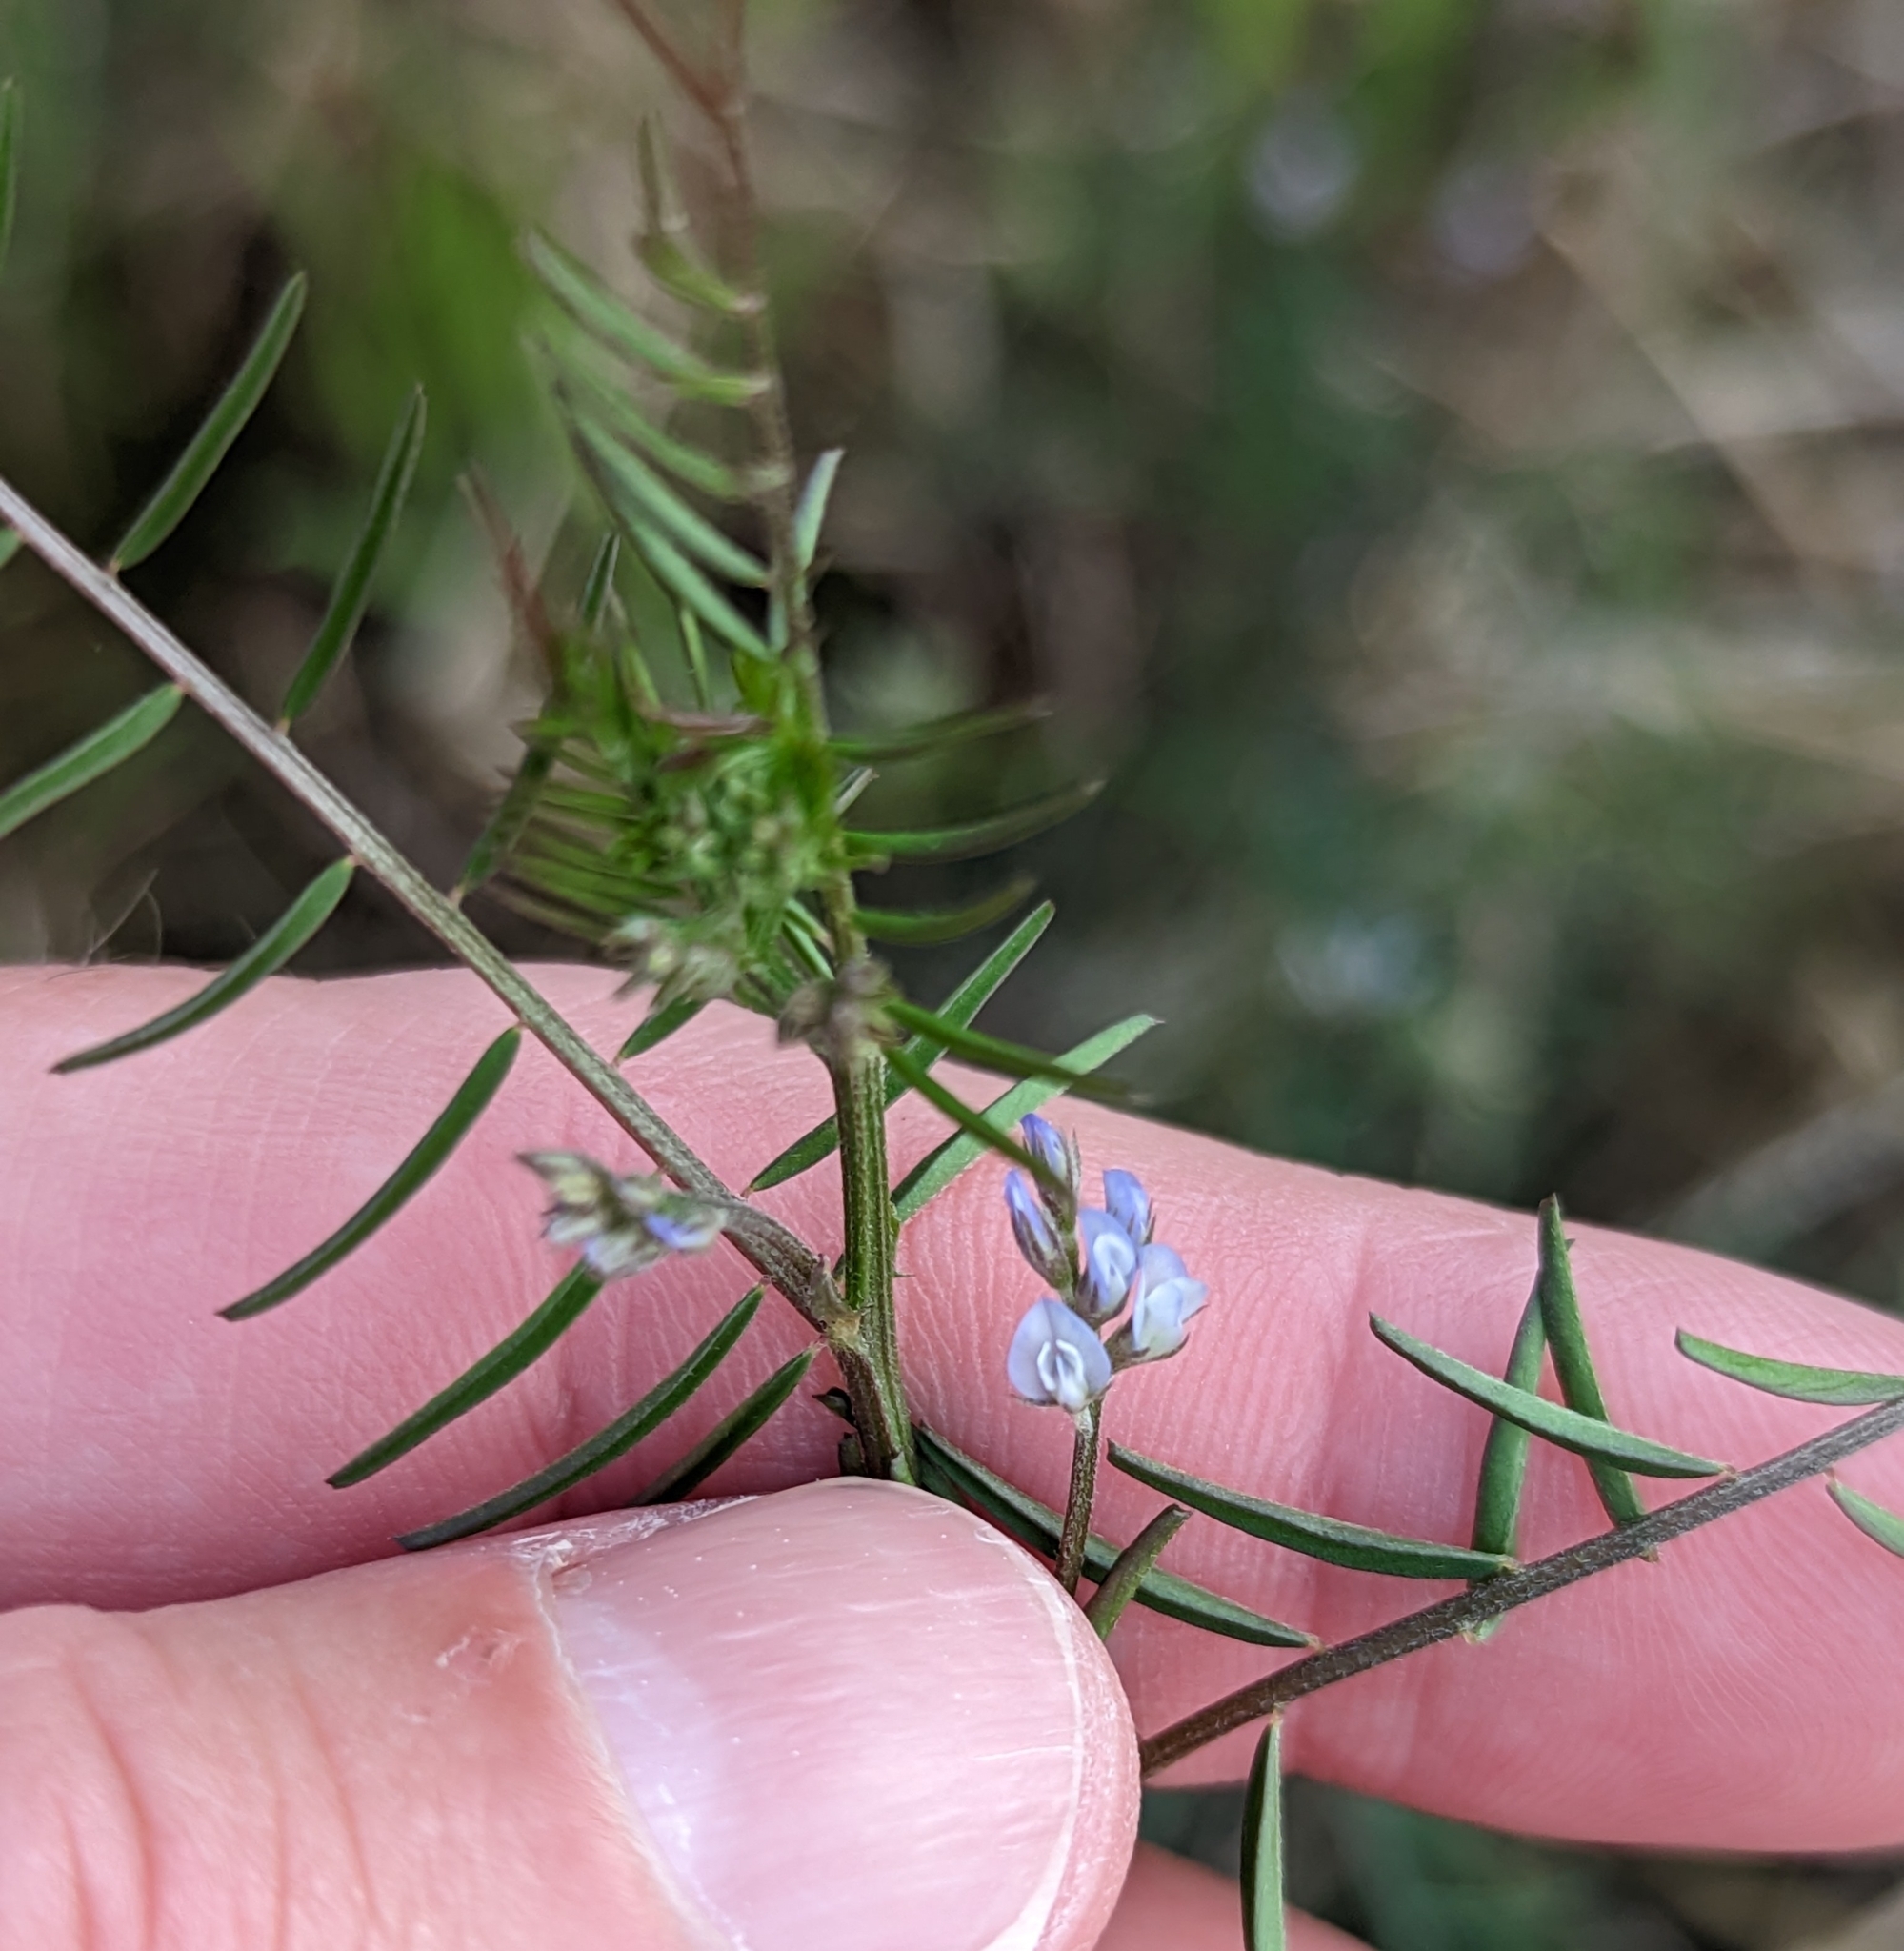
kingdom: Plantae
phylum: Tracheophyta
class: Magnoliopsida
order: Fabales
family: Fabaceae
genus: Vicia
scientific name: Vicia hirsuta
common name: Tiny vetch
